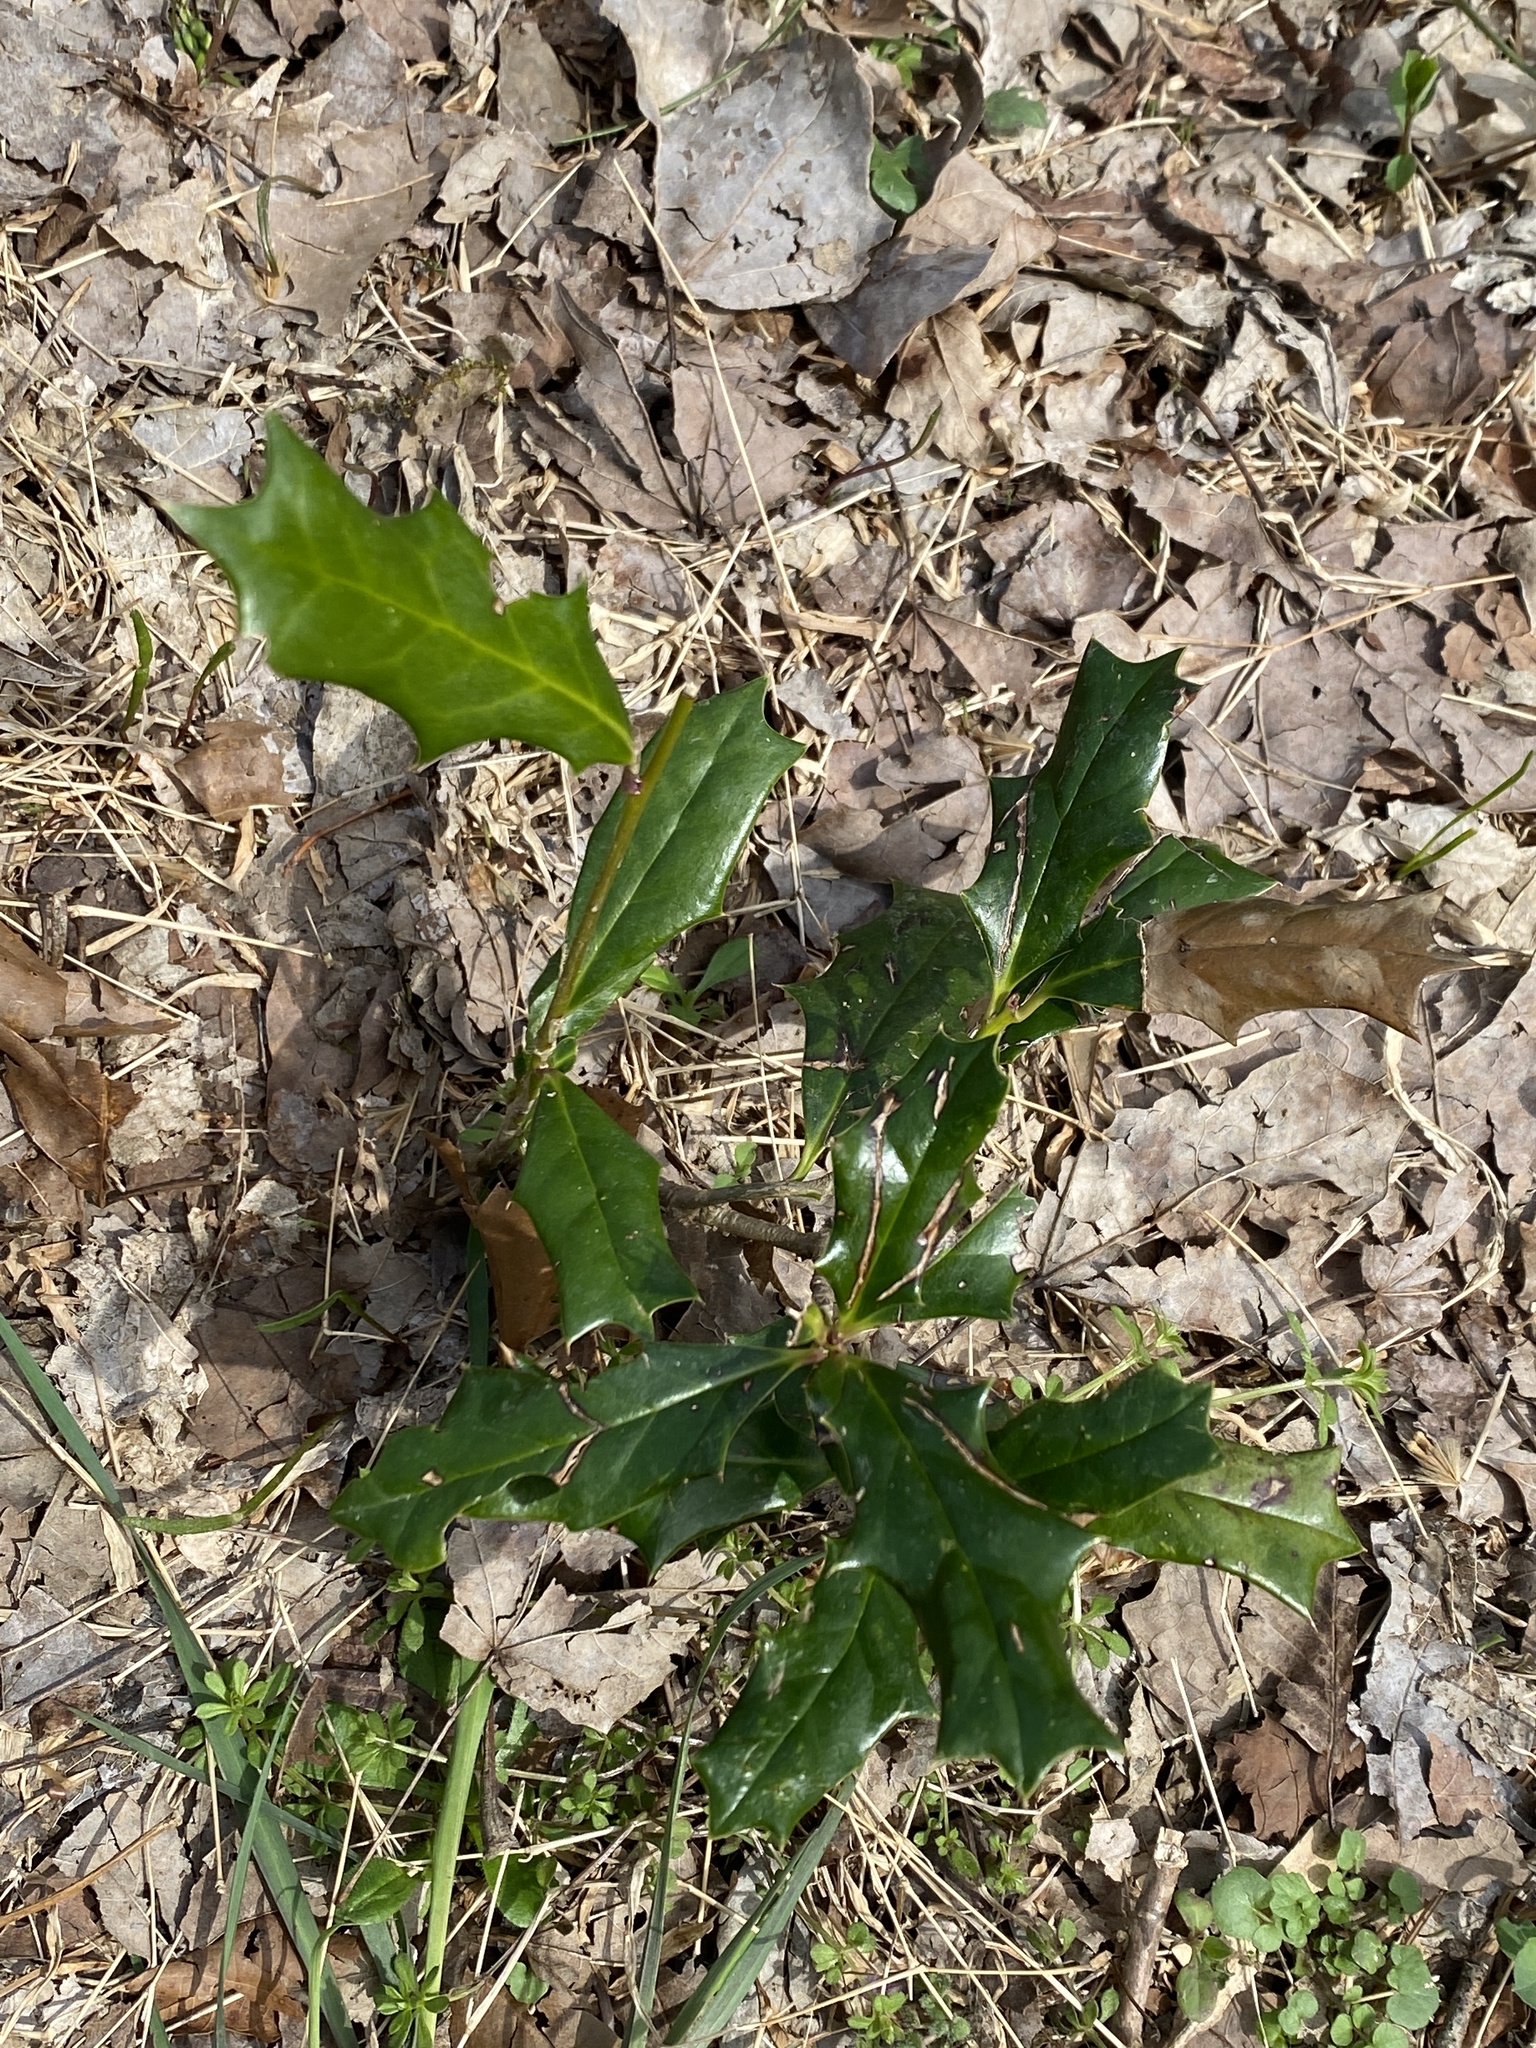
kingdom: Plantae
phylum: Tracheophyta
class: Magnoliopsida
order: Aquifoliales
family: Aquifoliaceae
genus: Ilex
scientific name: Ilex cornuta
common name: Chinese holly
